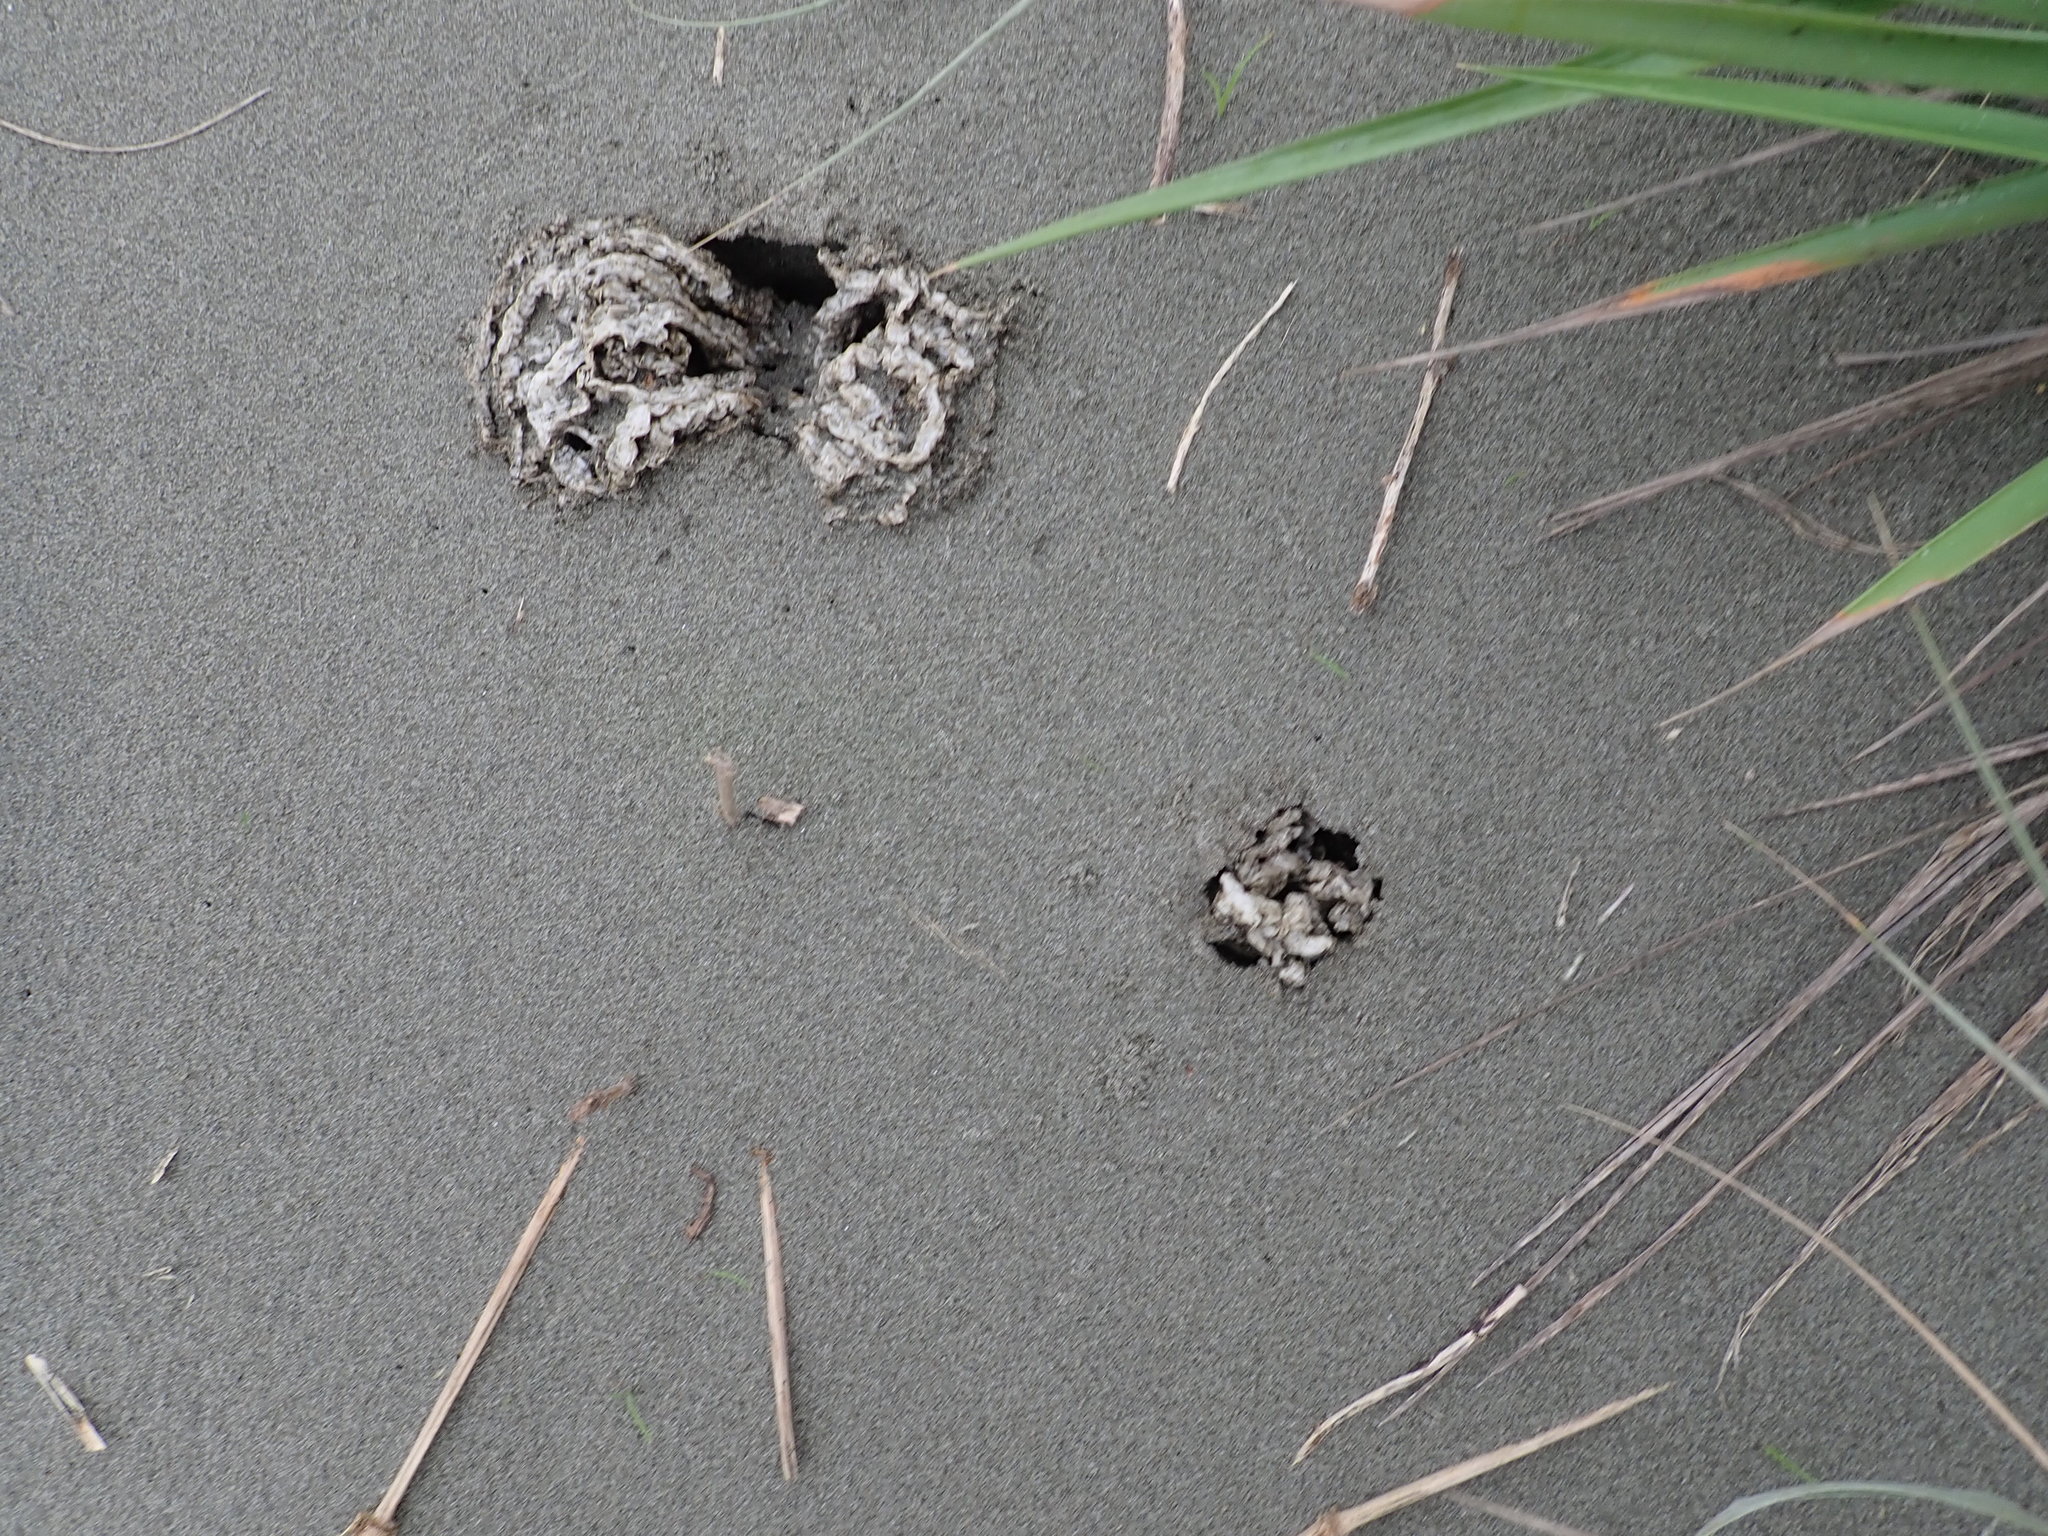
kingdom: Fungi
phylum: Basidiomycota
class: Agaricomycetes
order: Phallales
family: Phallaceae
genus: Ileodictyon
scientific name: Ileodictyon cibarium
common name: Basket fungus
